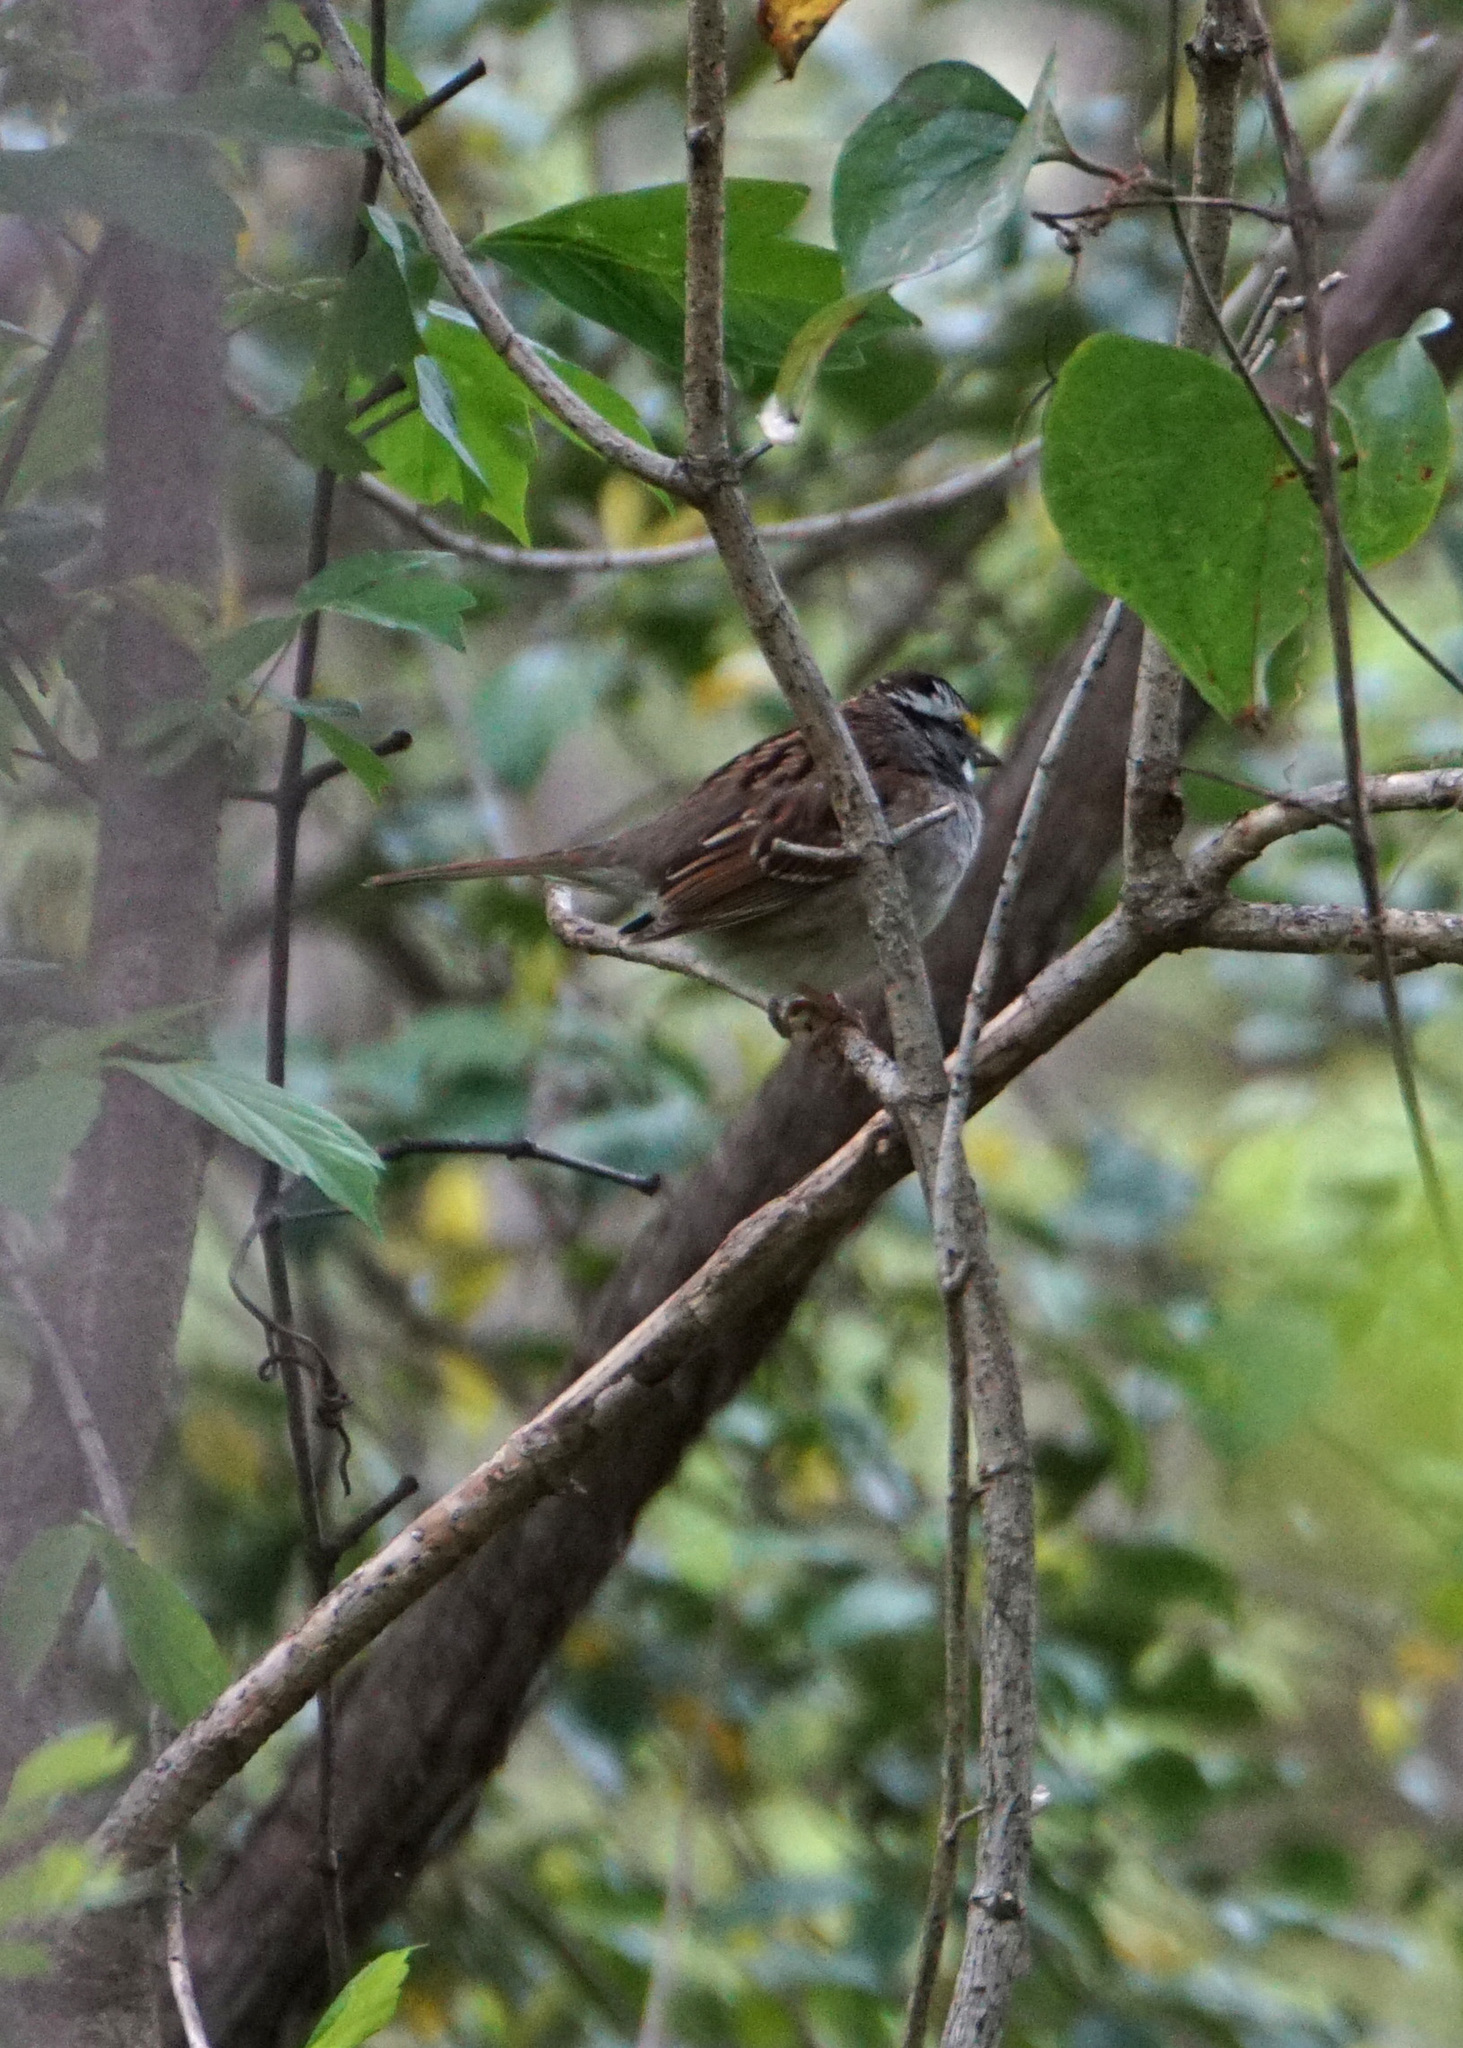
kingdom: Animalia
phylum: Chordata
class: Aves
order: Passeriformes
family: Passerellidae
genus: Zonotrichia
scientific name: Zonotrichia albicollis
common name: White-throated sparrow
